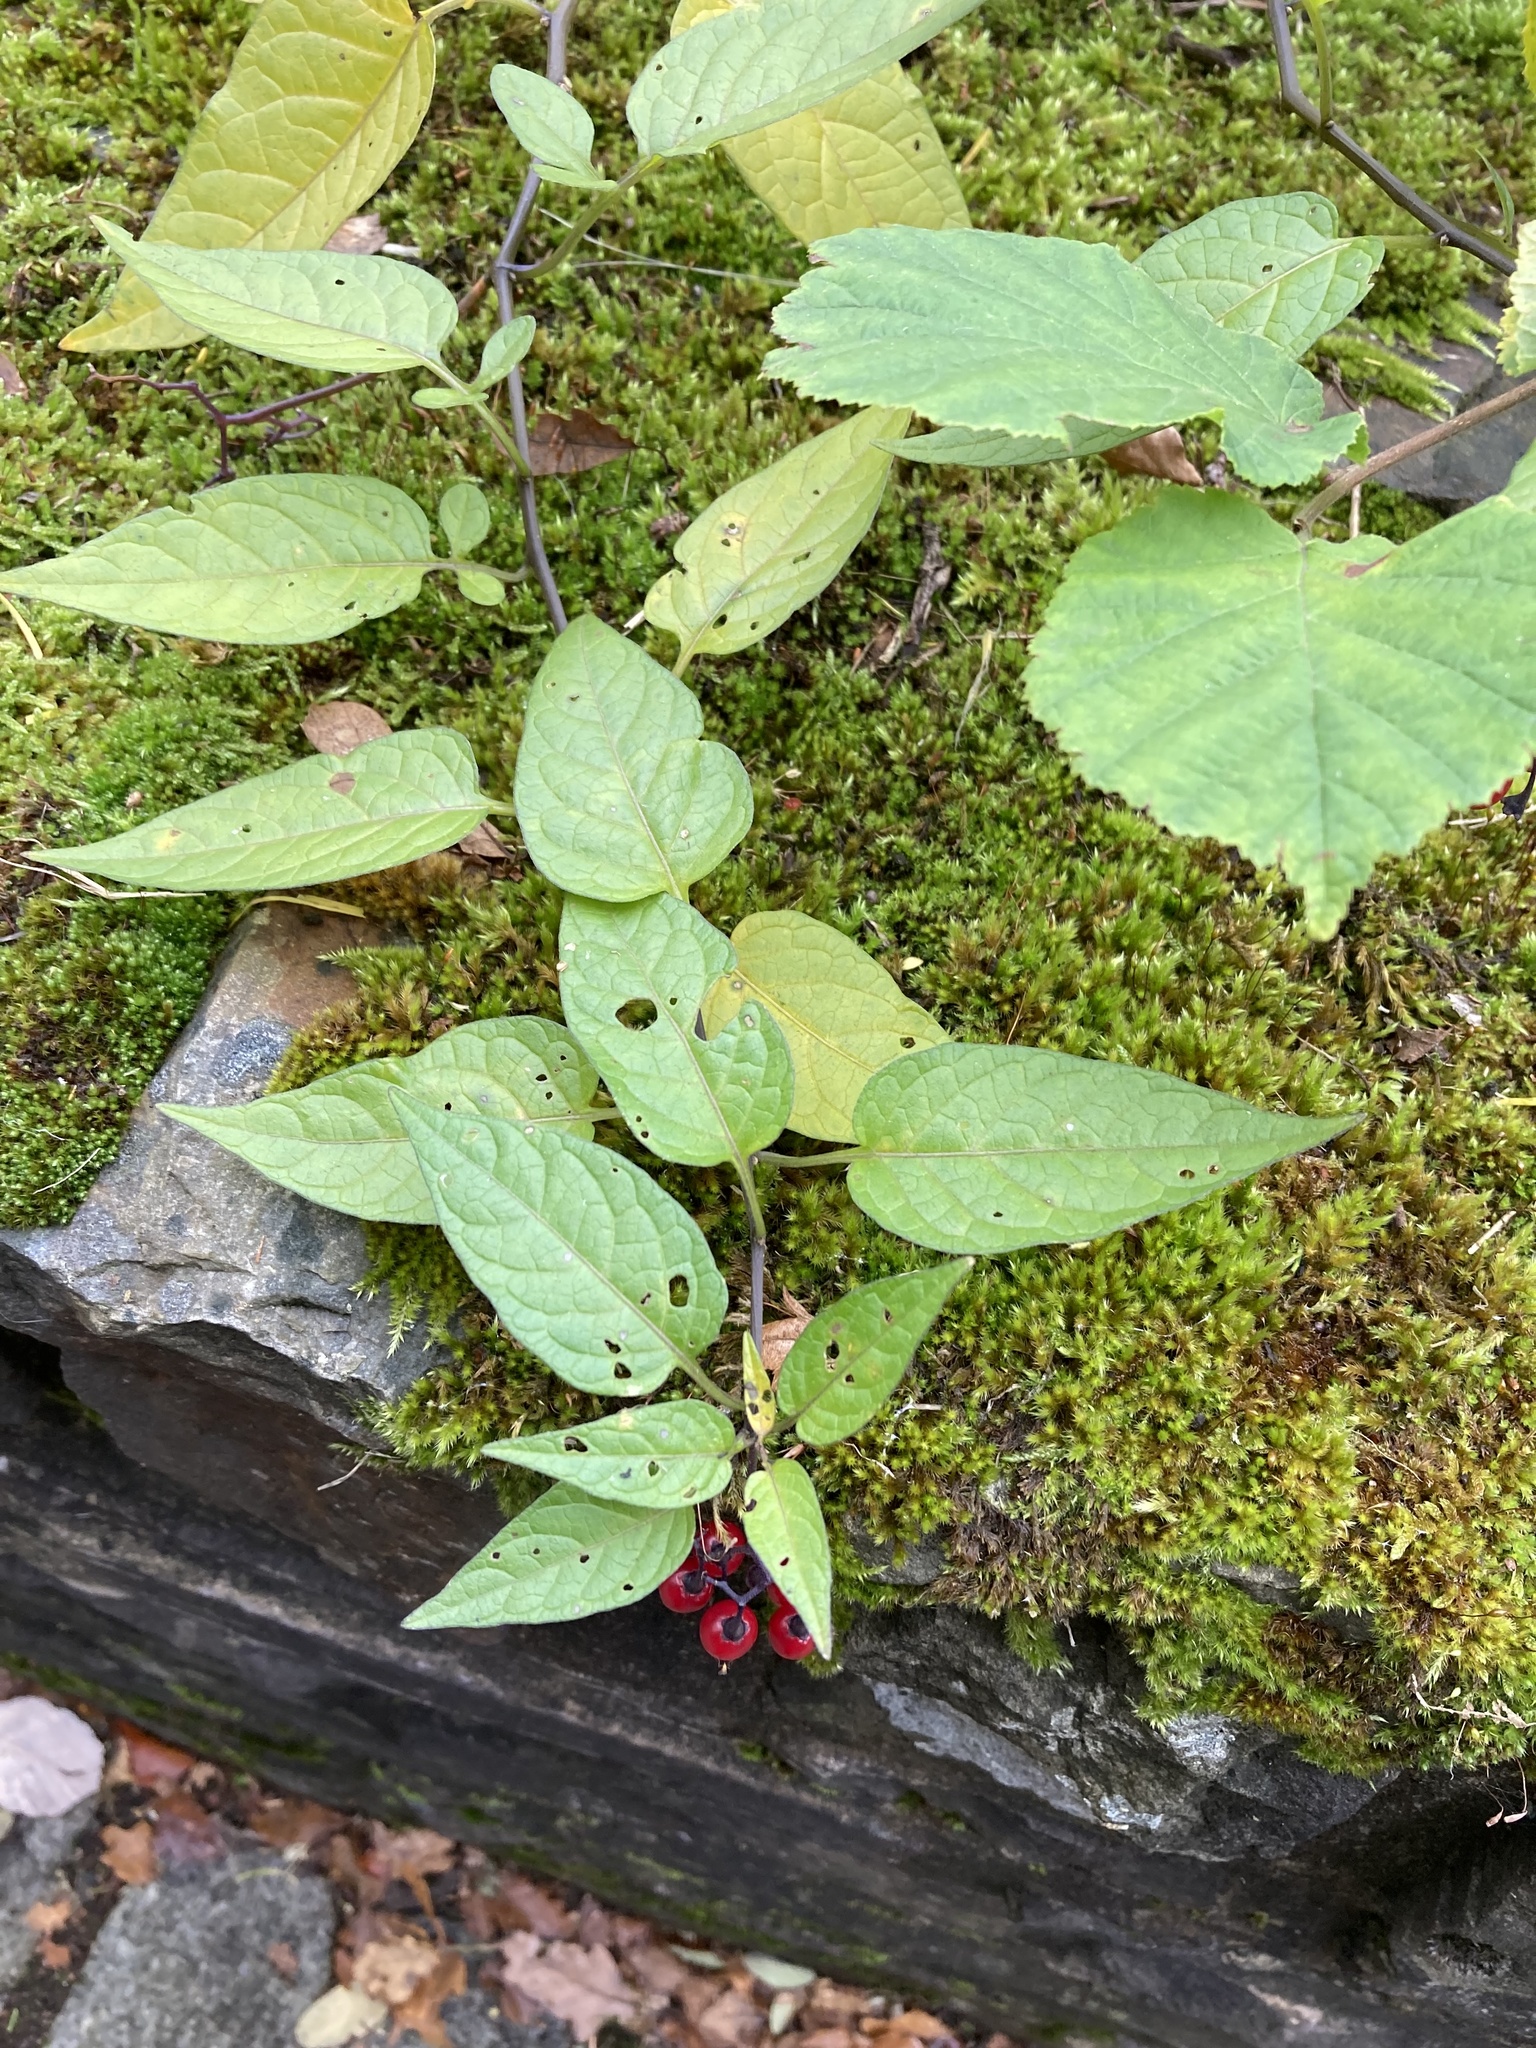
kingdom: Plantae
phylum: Tracheophyta
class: Magnoliopsida
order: Solanales
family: Solanaceae
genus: Solanum
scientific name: Solanum dulcamara
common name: Climbing nightshade
